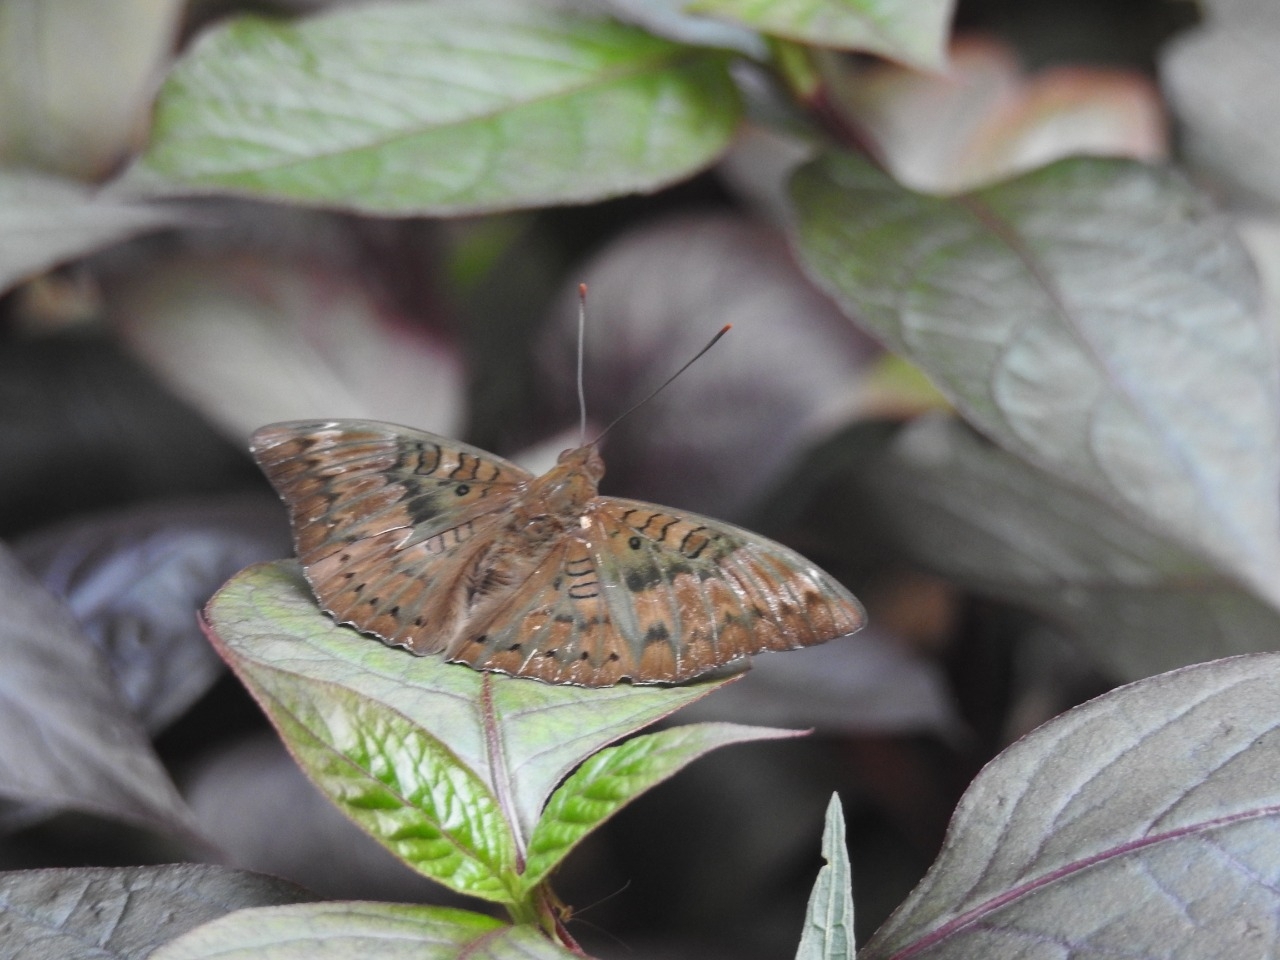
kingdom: Animalia
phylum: Arthropoda
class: Insecta
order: Lepidoptera
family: Nymphalidae
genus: Euthalia
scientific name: Euthalia aconthea
